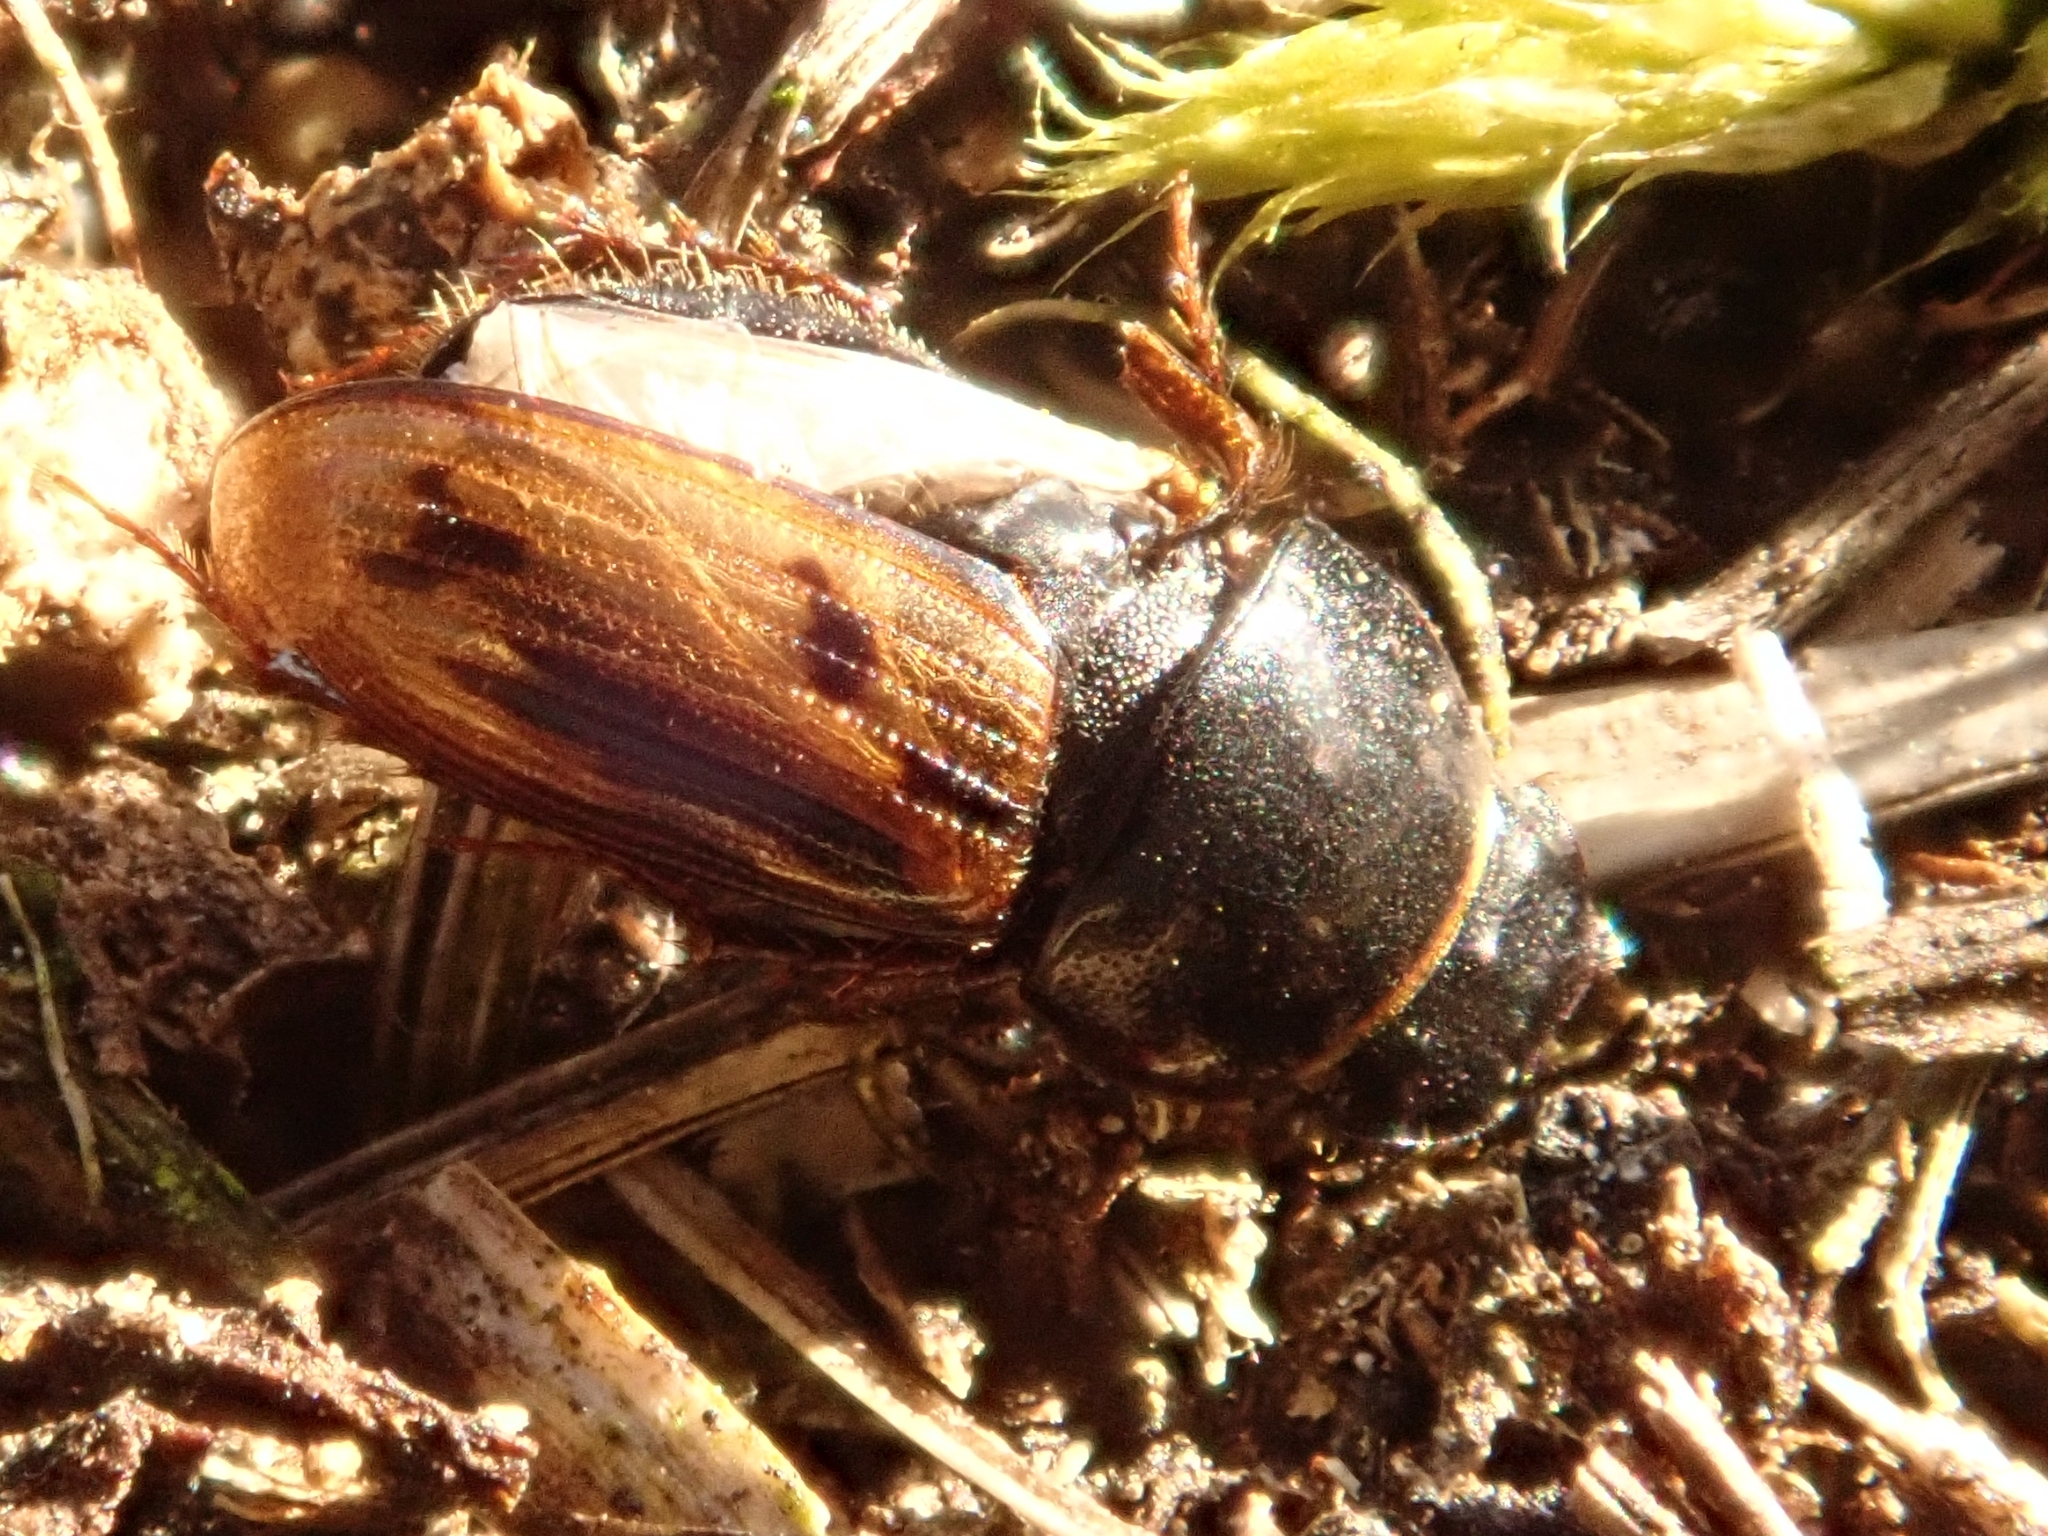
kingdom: Animalia
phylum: Arthropoda
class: Insecta
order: Coleoptera
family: Scarabaeidae
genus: Chilothorax
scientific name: Chilothorax distinctus
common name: Maculated dung beetle
